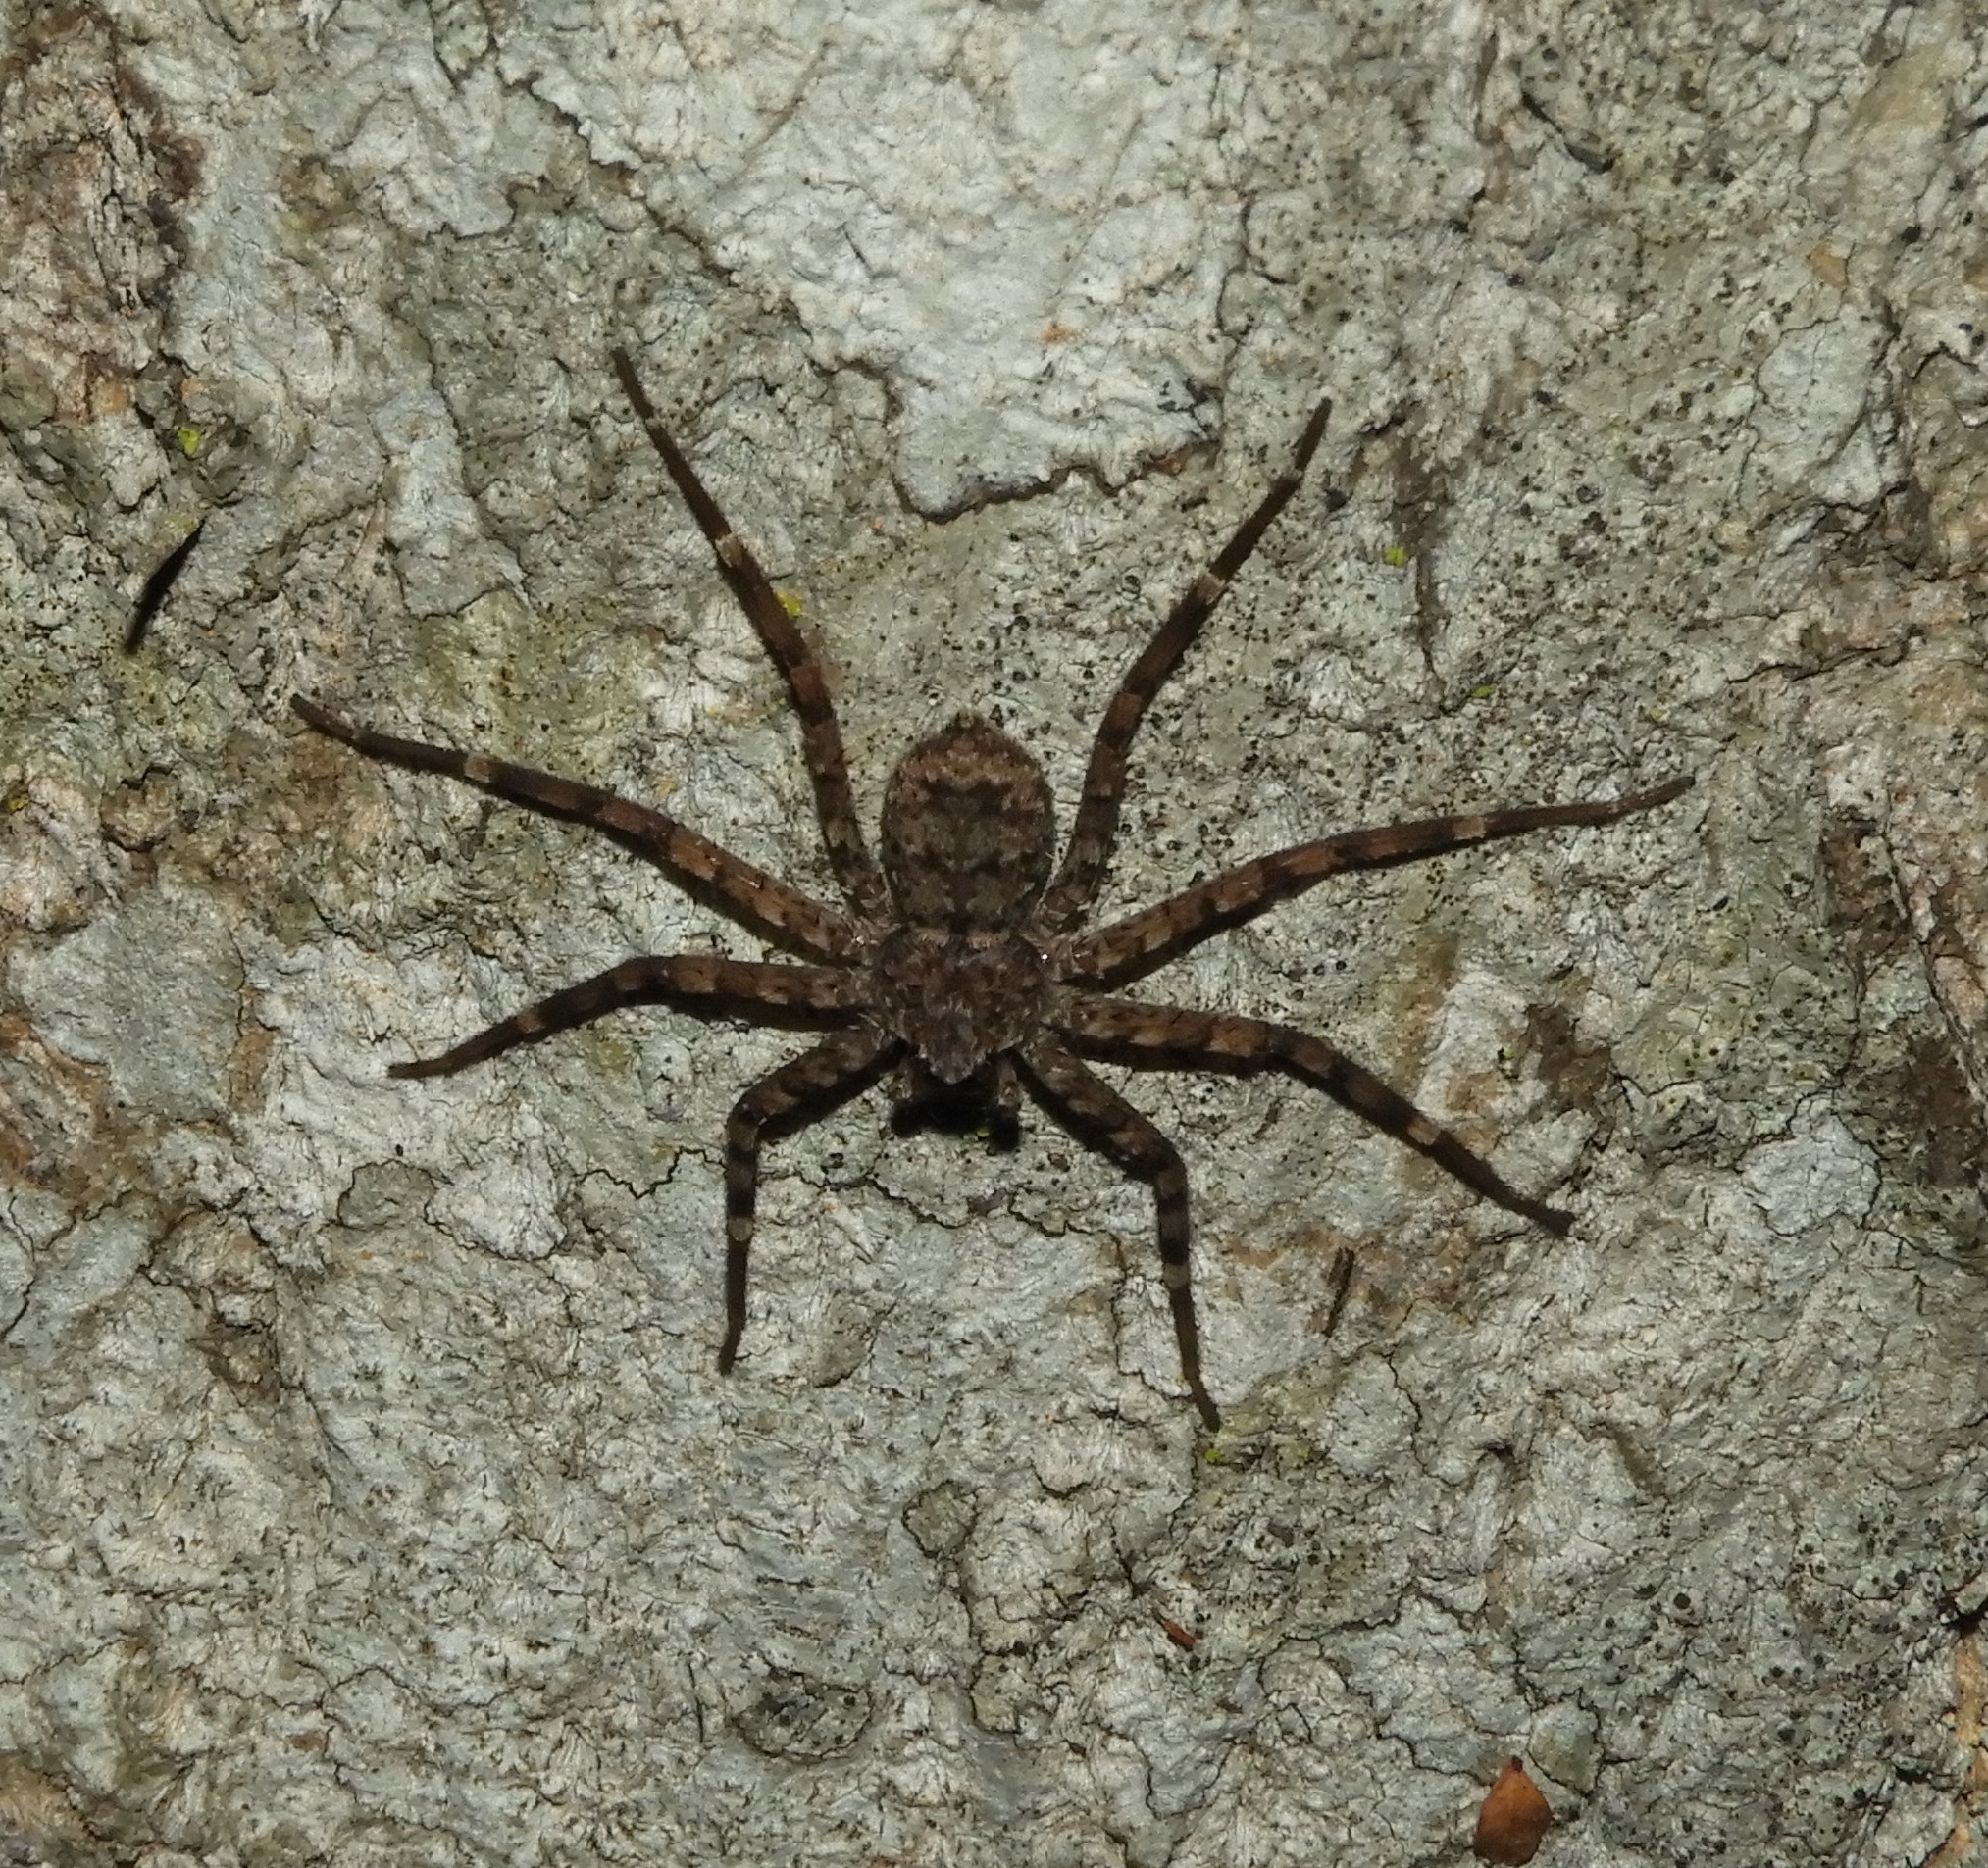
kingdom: Animalia
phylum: Arthropoda
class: Arachnida
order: Araneae
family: Selenopidae
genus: Selenops
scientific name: Selenops
